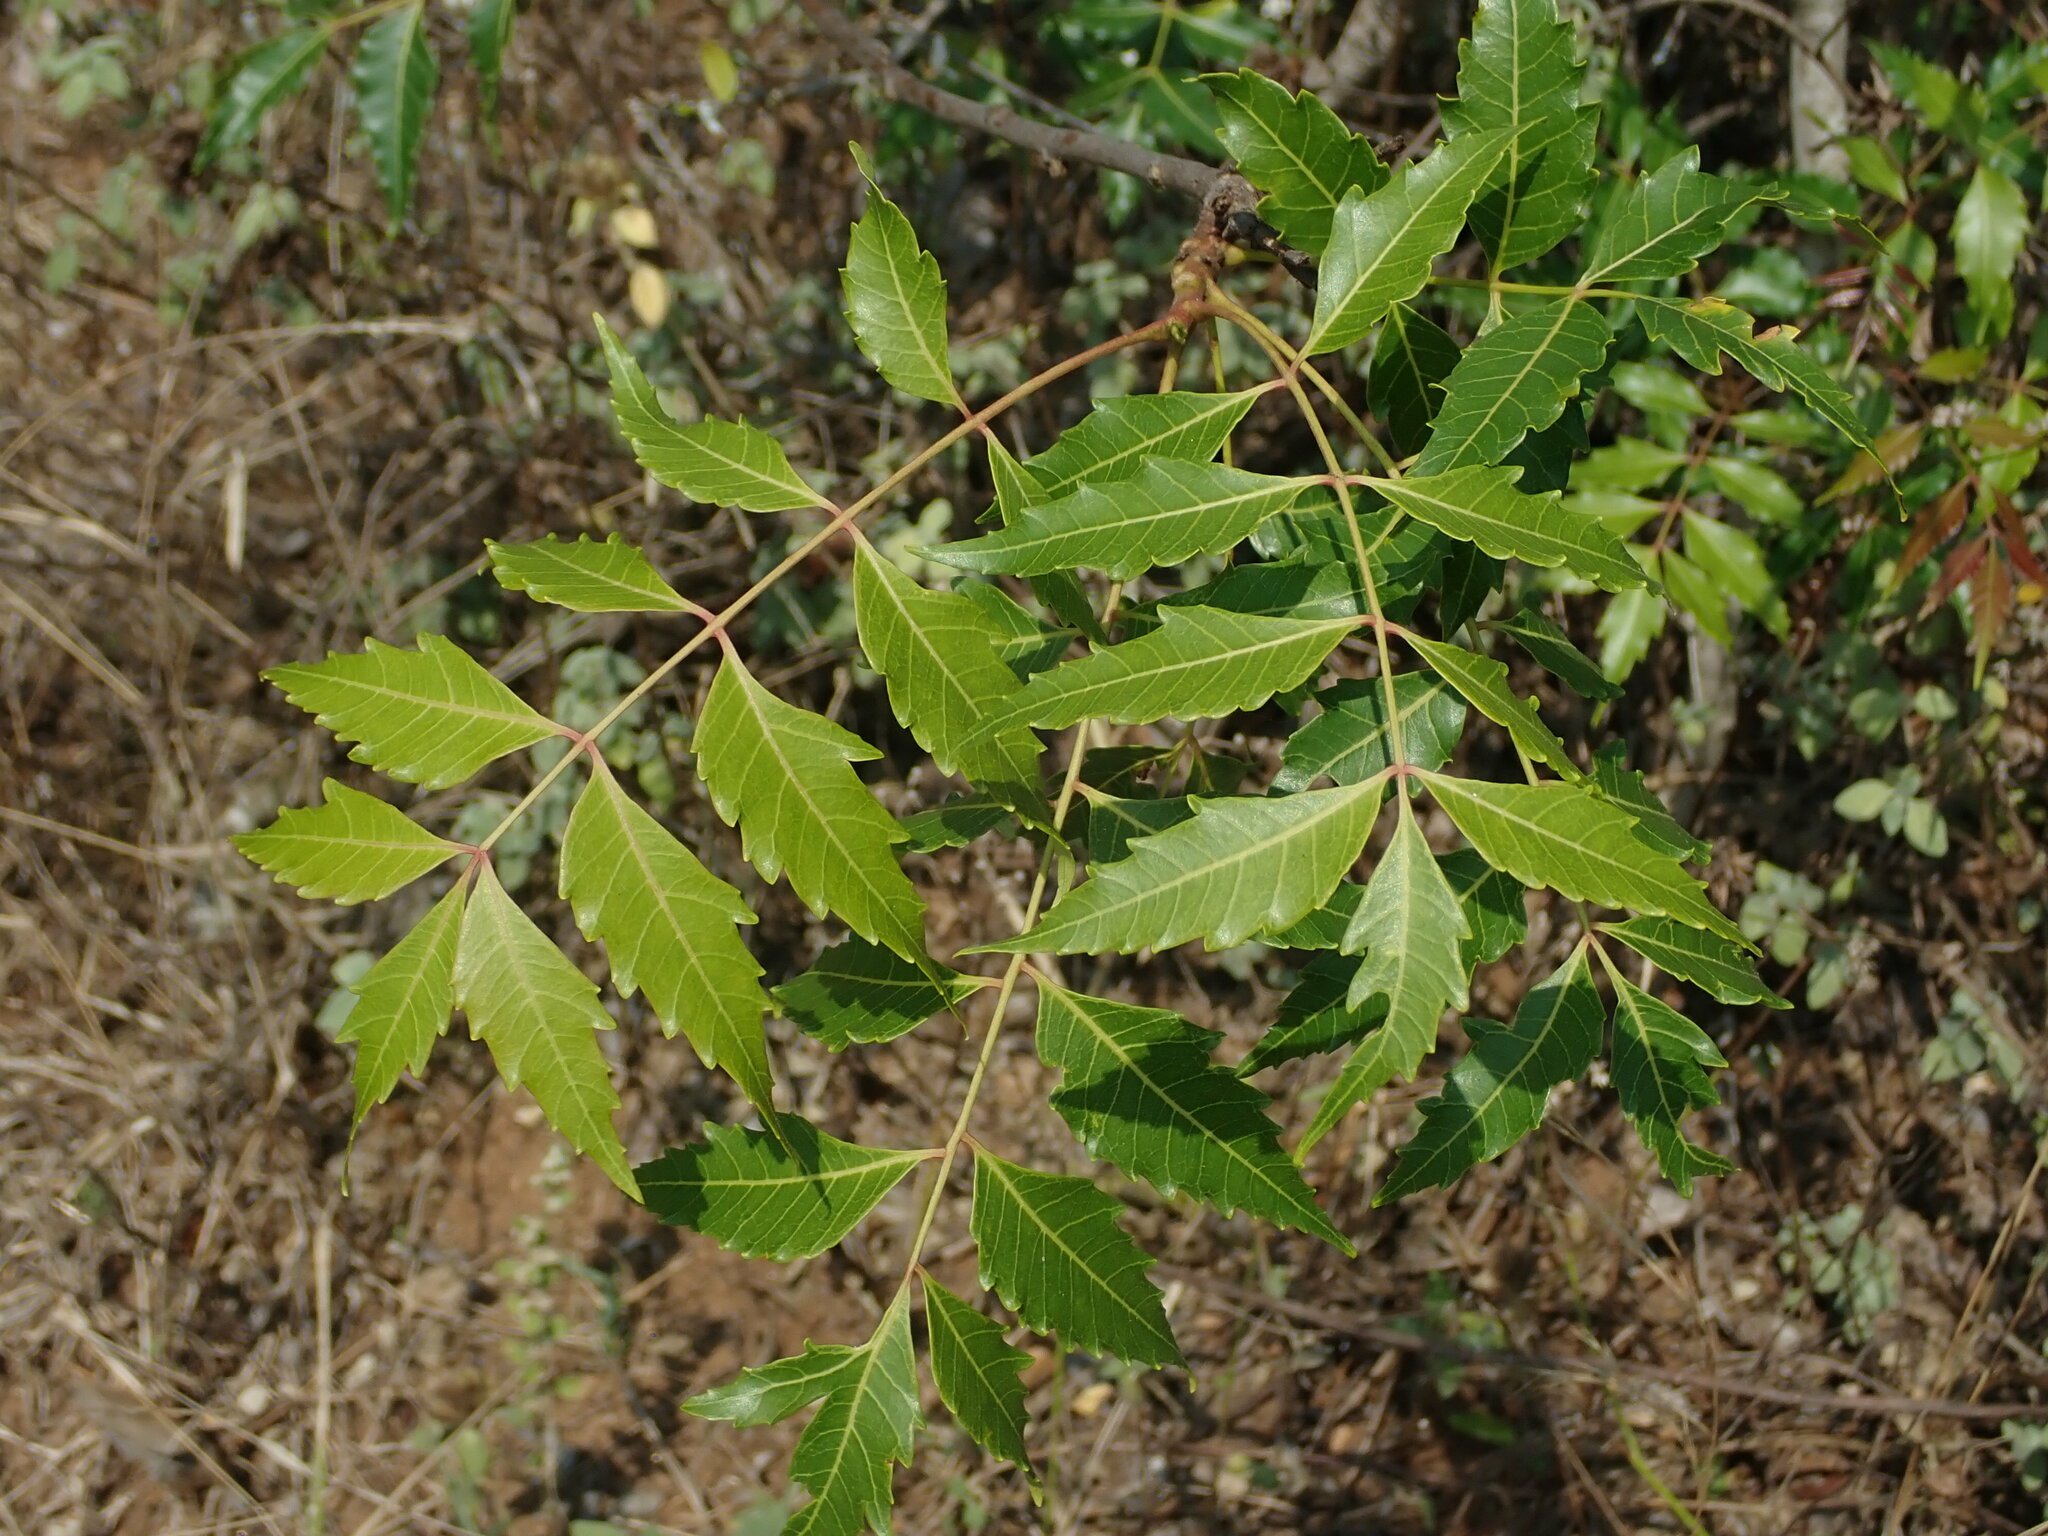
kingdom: Plantae
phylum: Tracheophyta
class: Magnoliopsida
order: Sapindales
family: Meliaceae
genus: Azadirachta
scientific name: Azadirachta indica
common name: Neem
